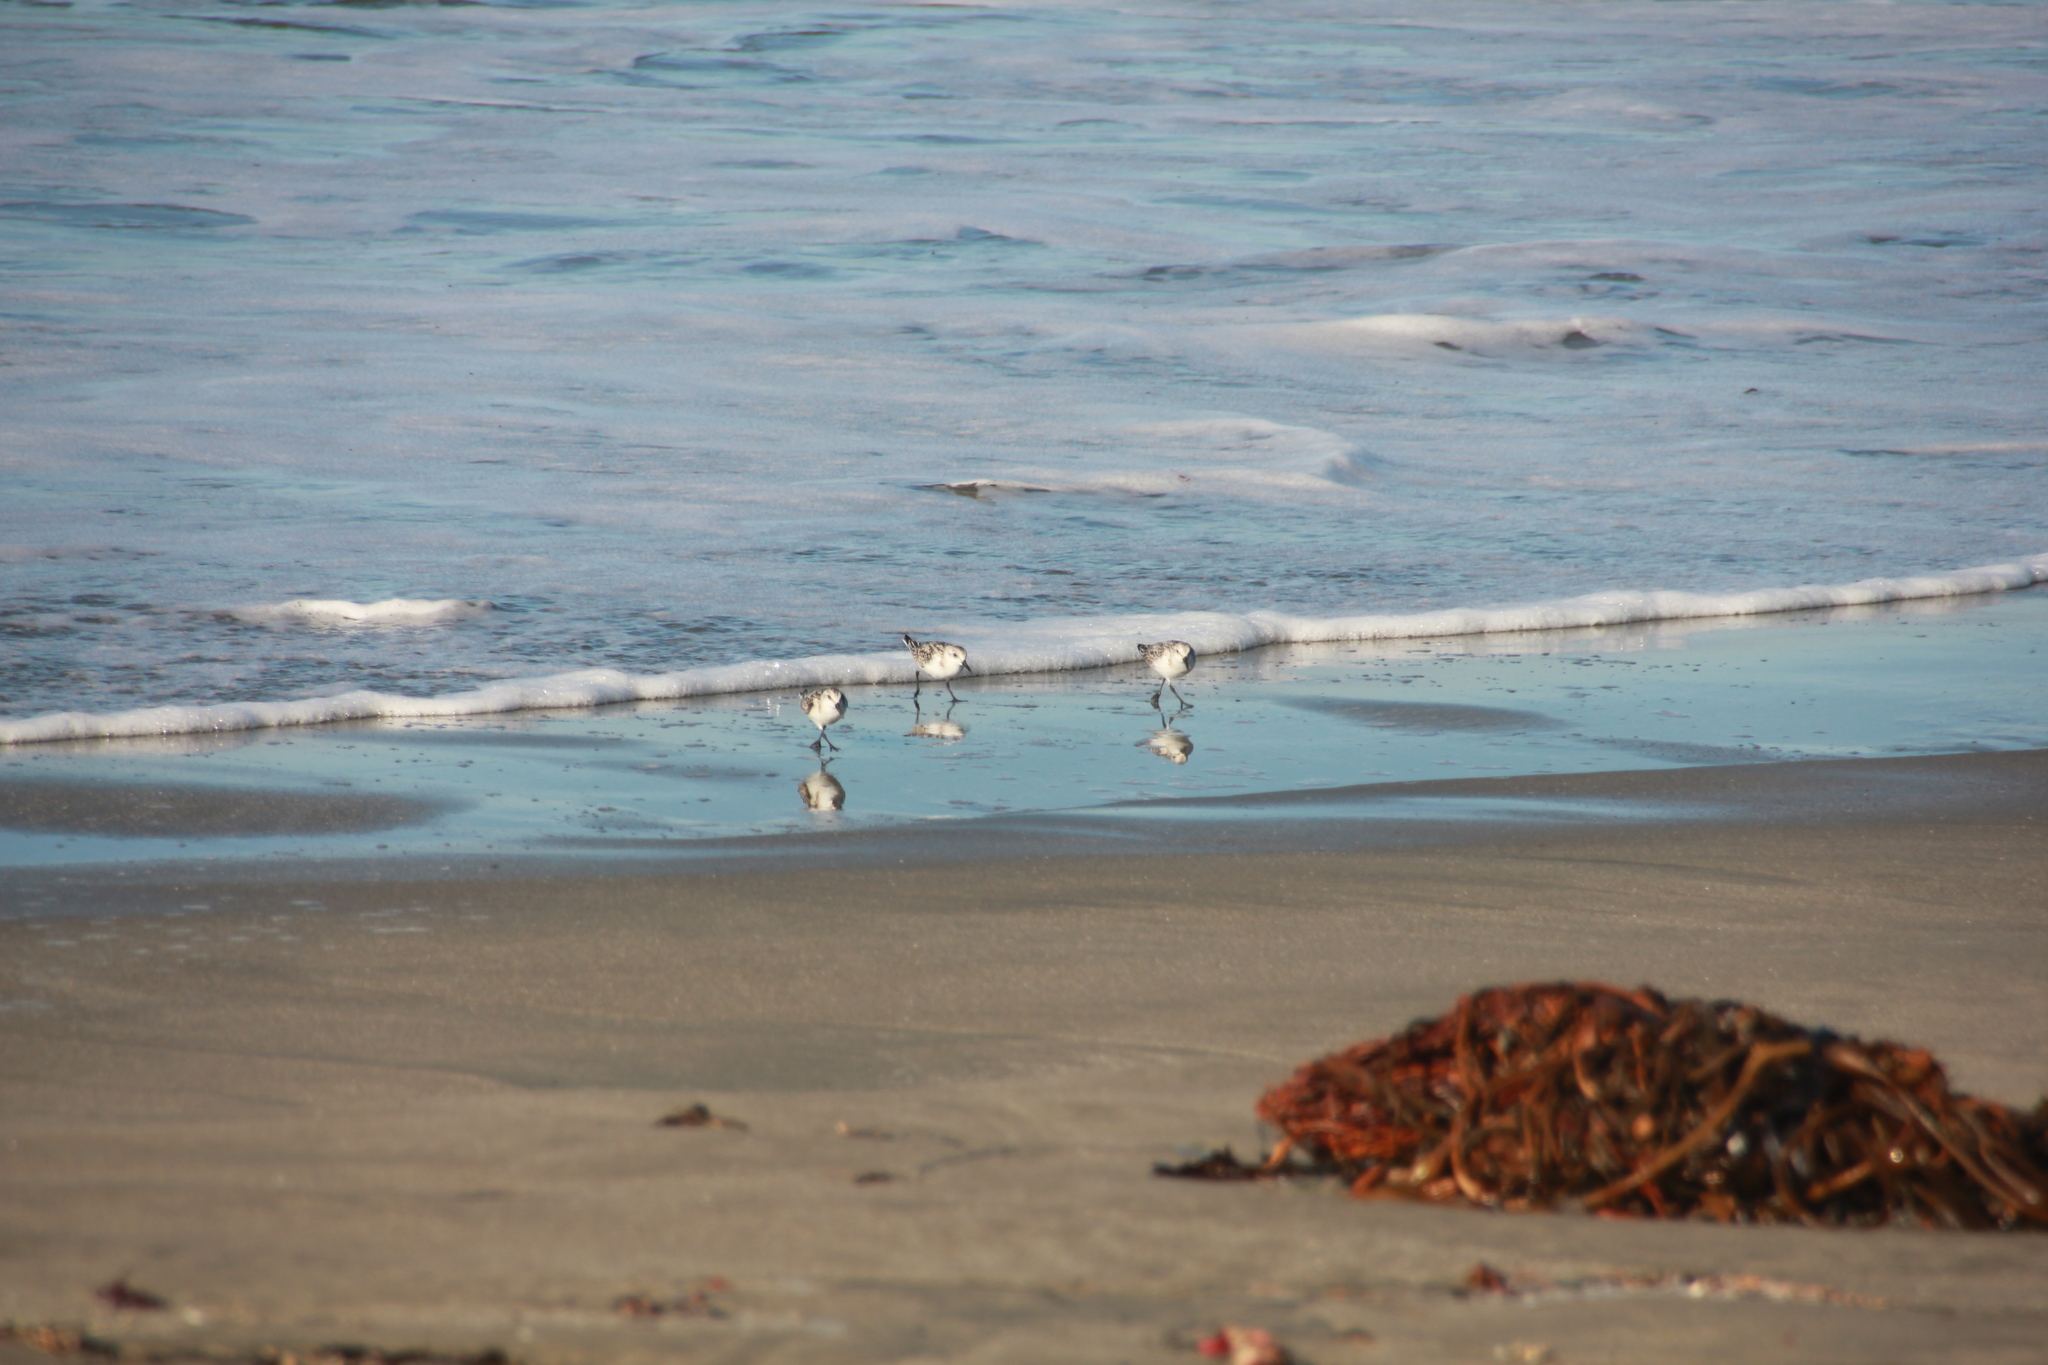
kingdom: Animalia
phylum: Chordata
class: Aves
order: Charadriiformes
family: Scolopacidae
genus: Calidris
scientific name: Calidris alba
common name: Sanderling
